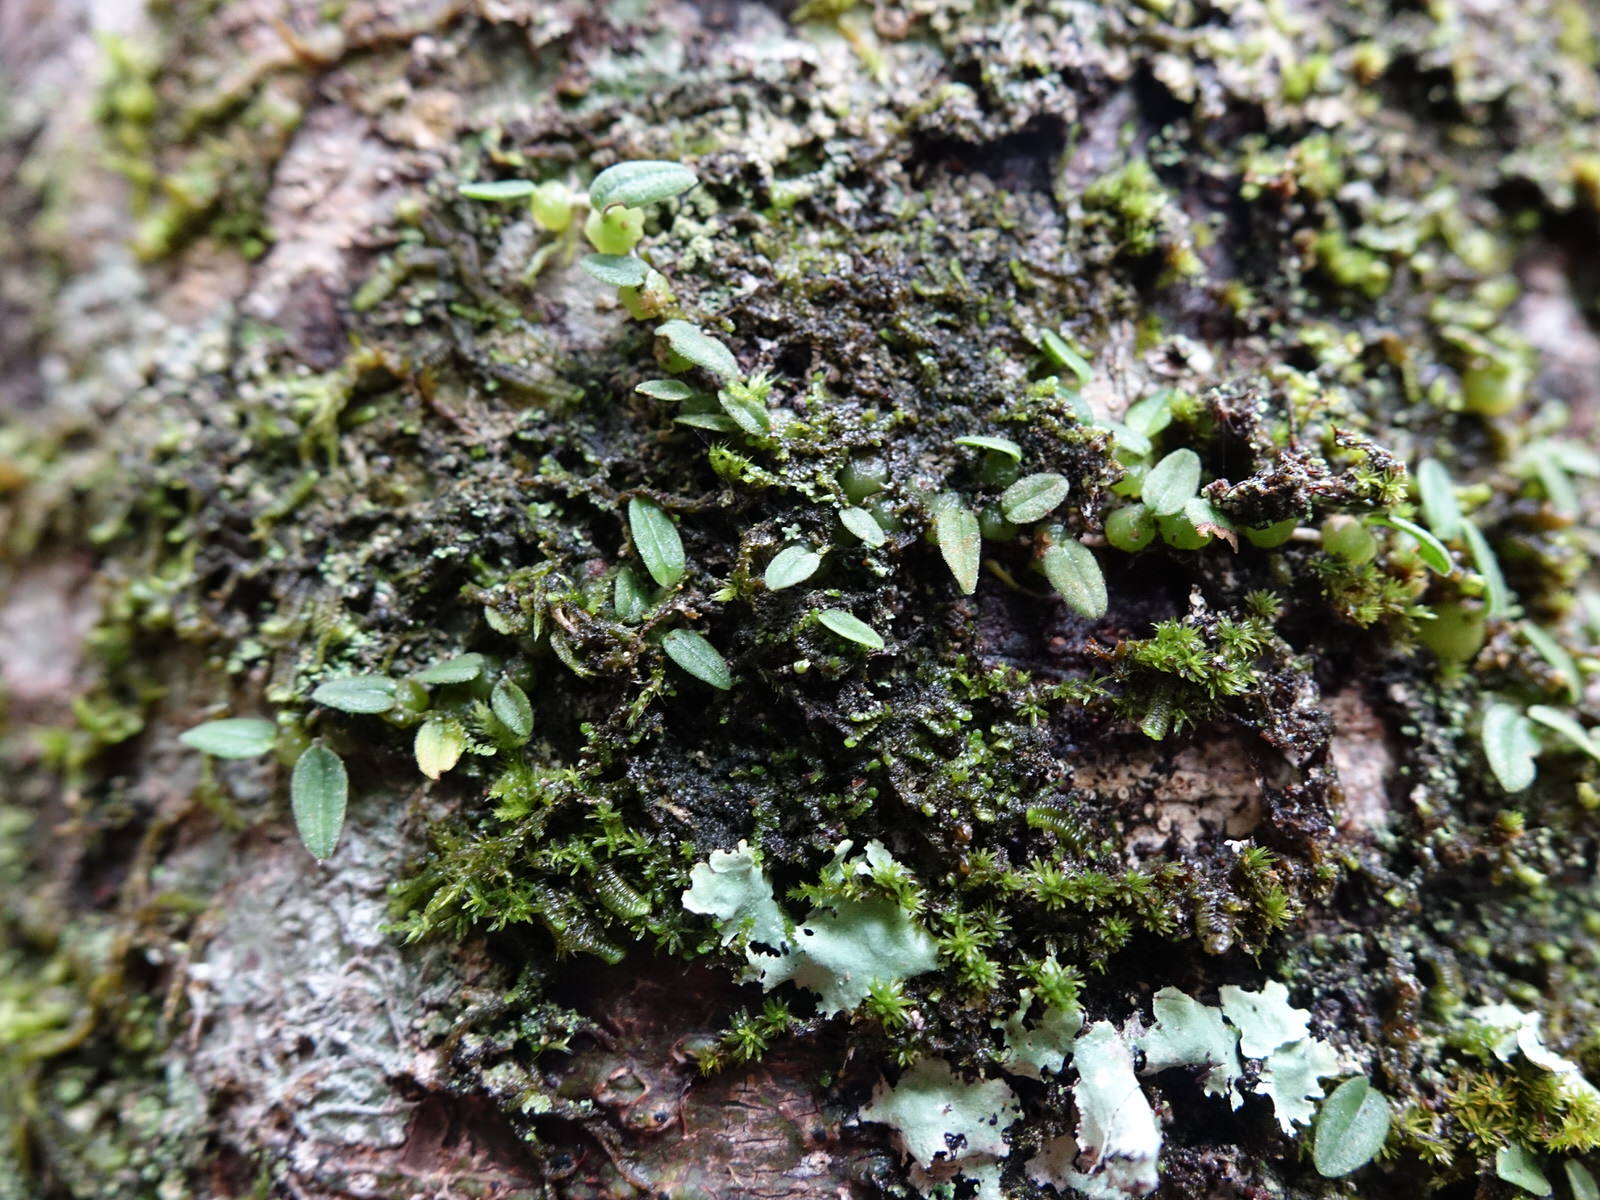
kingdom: Plantae
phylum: Tracheophyta
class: Liliopsida
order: Asparagales
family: Orchidaceae
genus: Bulbophyllum
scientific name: Bulbophyllum pygmaeum
